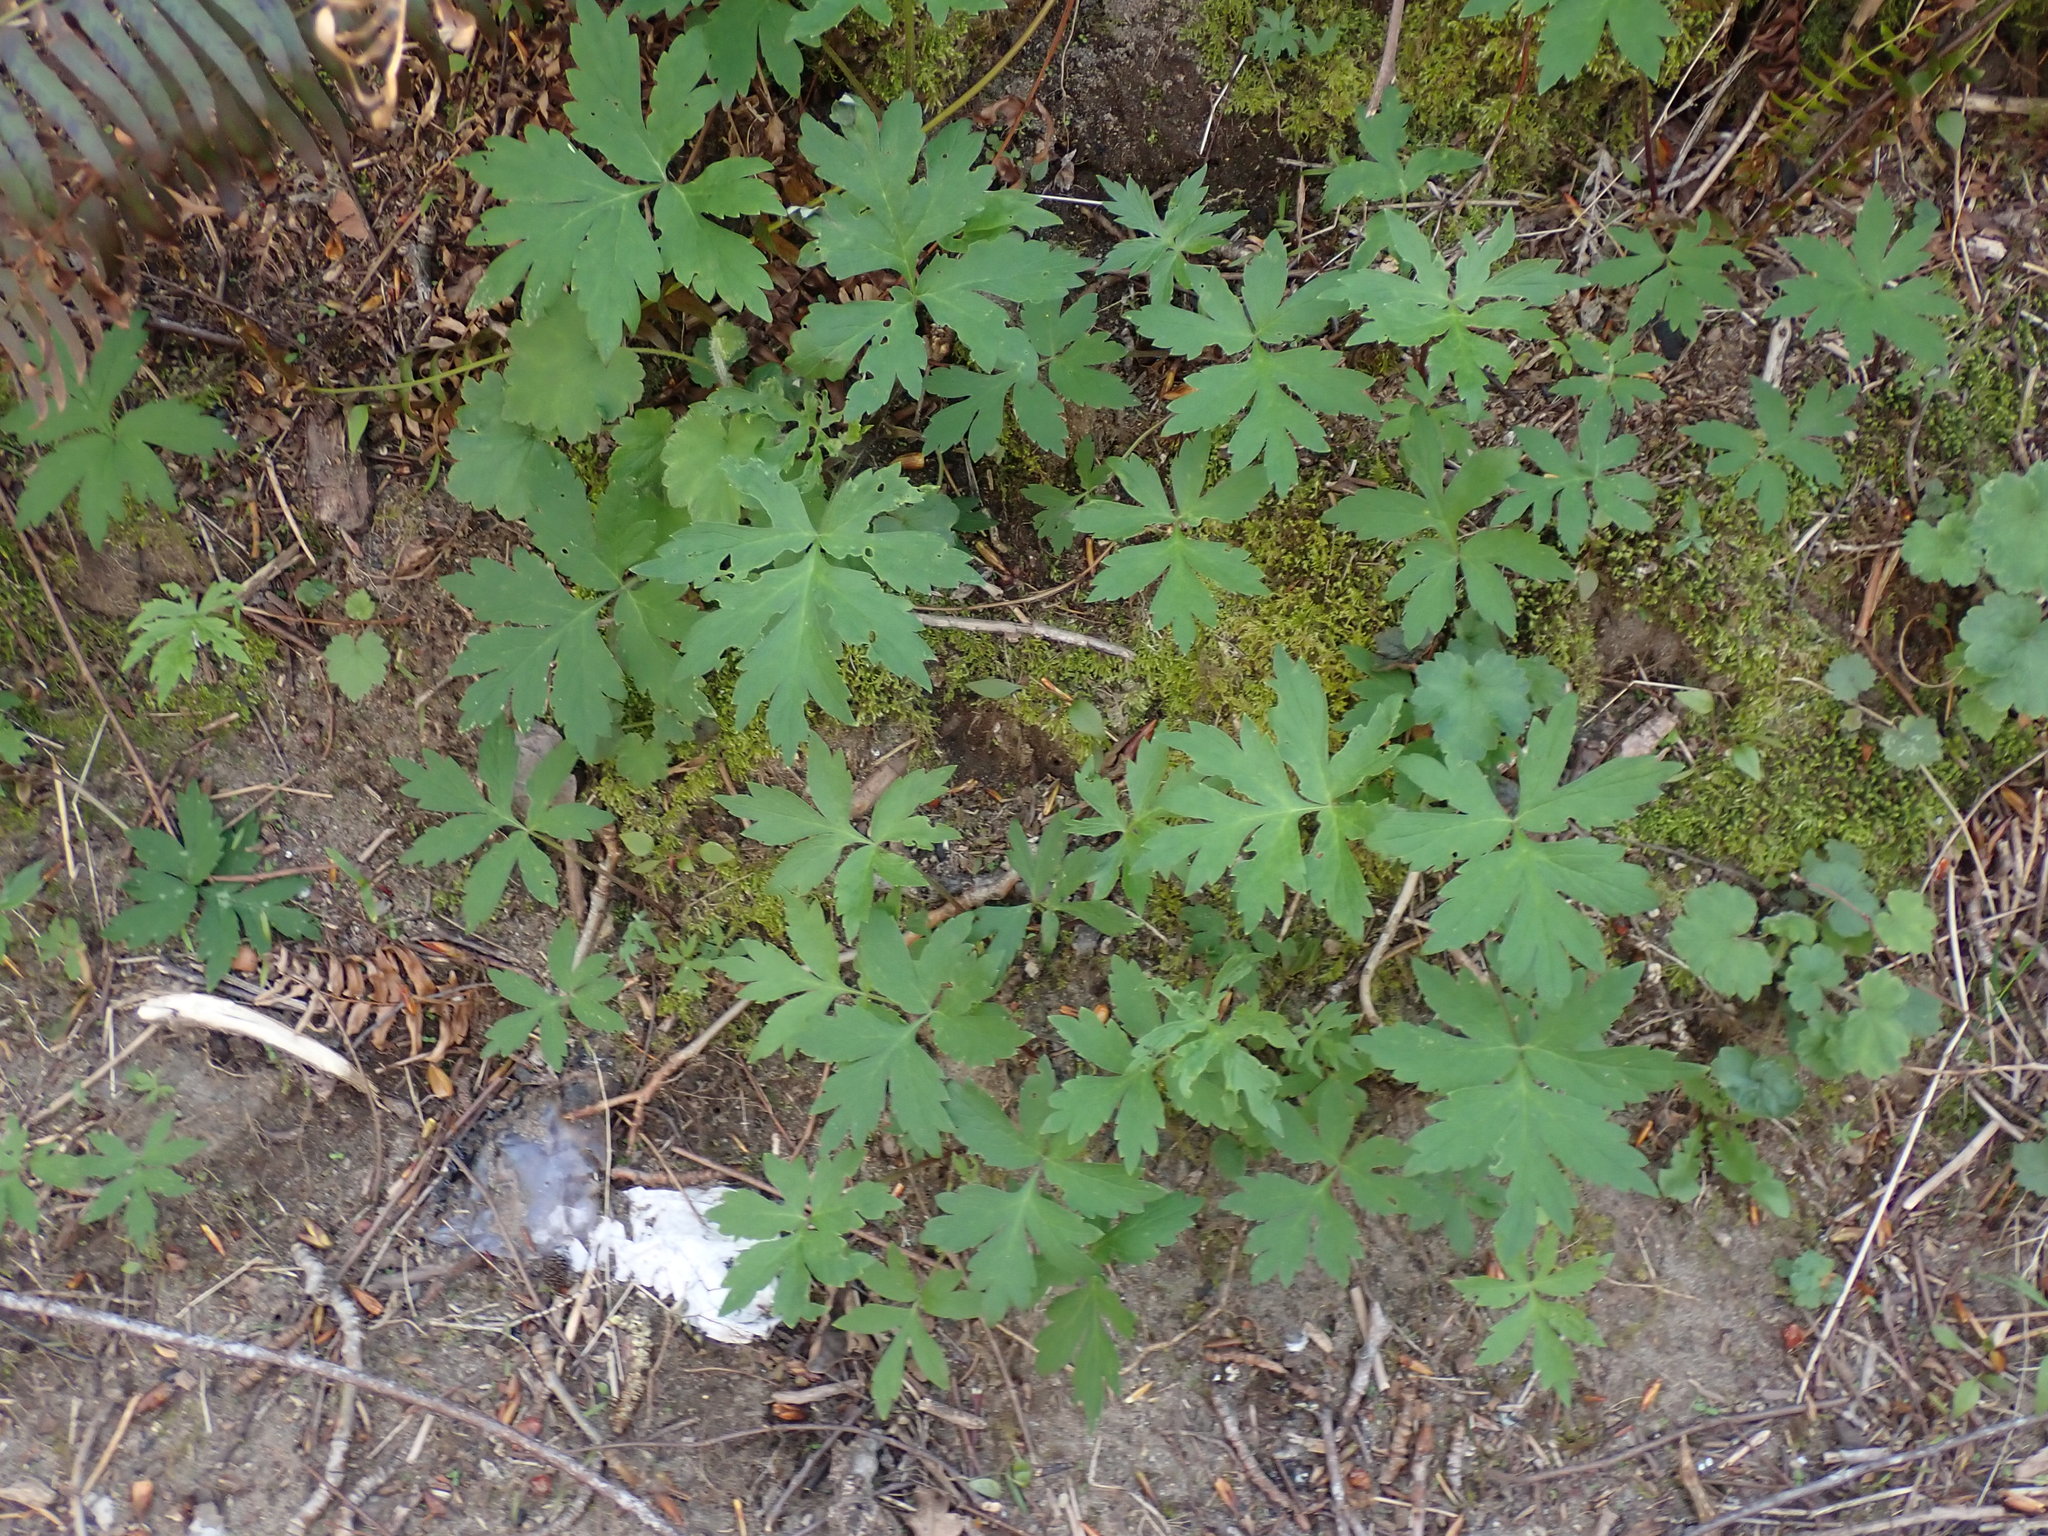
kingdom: Plantae
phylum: Tracheophyta
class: Magnoliopsida
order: Boraginales
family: Hydrophyllaceae
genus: Hydrophyllum
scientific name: Hydrophyllum tenuipes
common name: Pacific waterleaf
